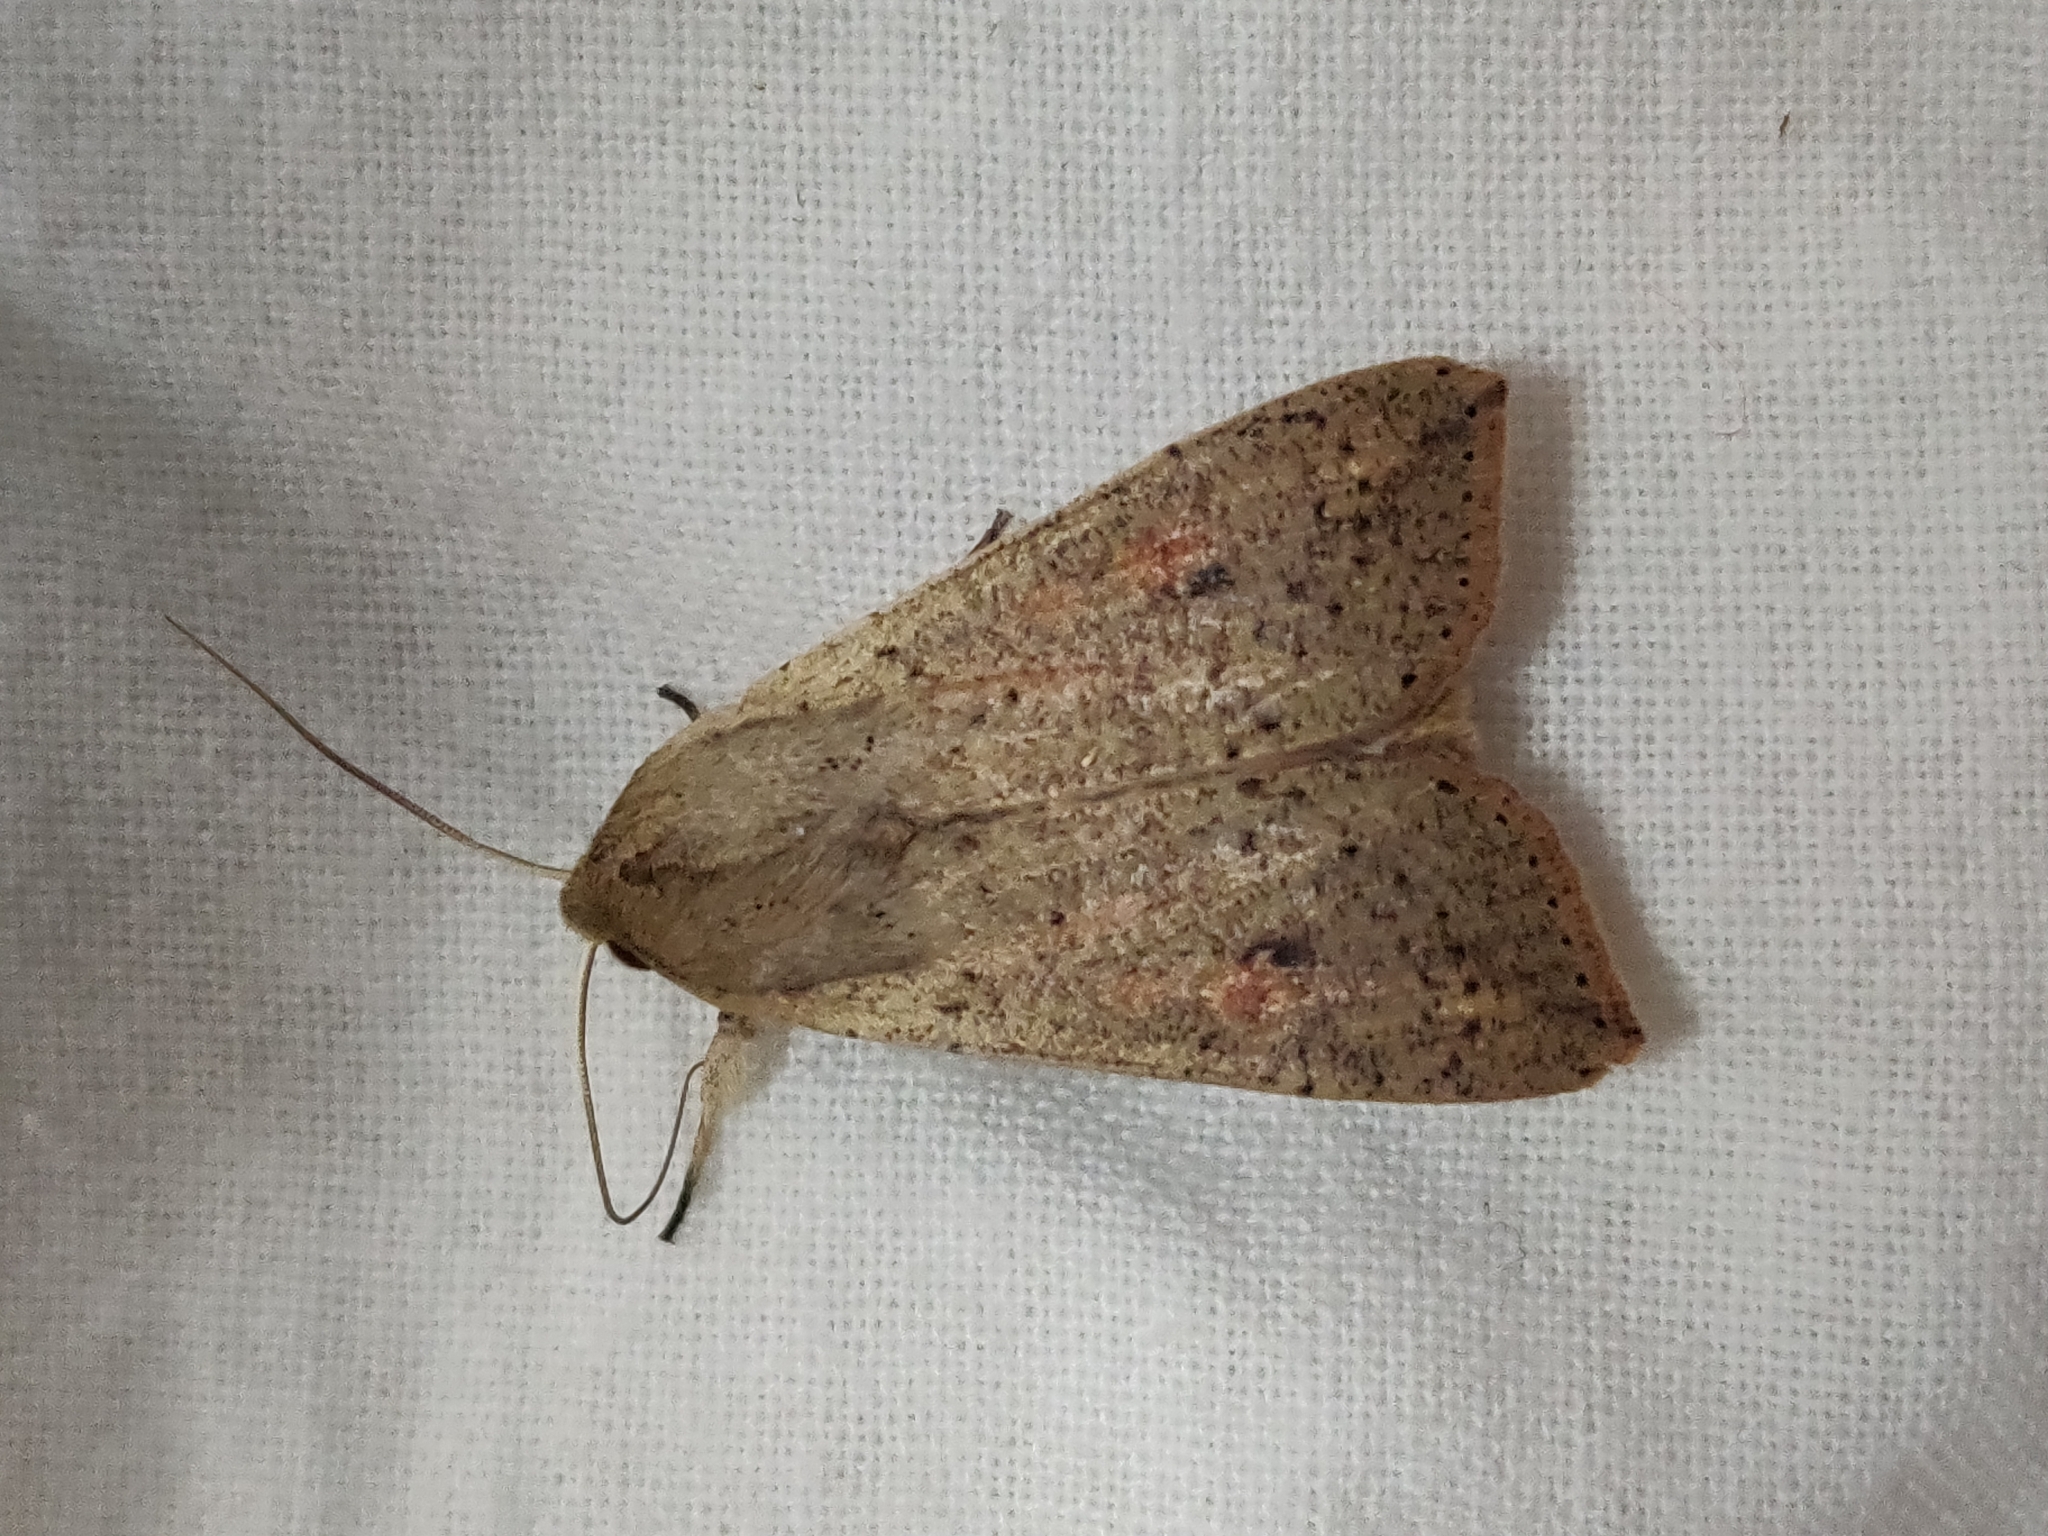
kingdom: Animalia
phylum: Arthropoda
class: Insecta
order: Lepidoptera
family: Noctuidae
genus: Mythimna
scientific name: Mythimna convecta
